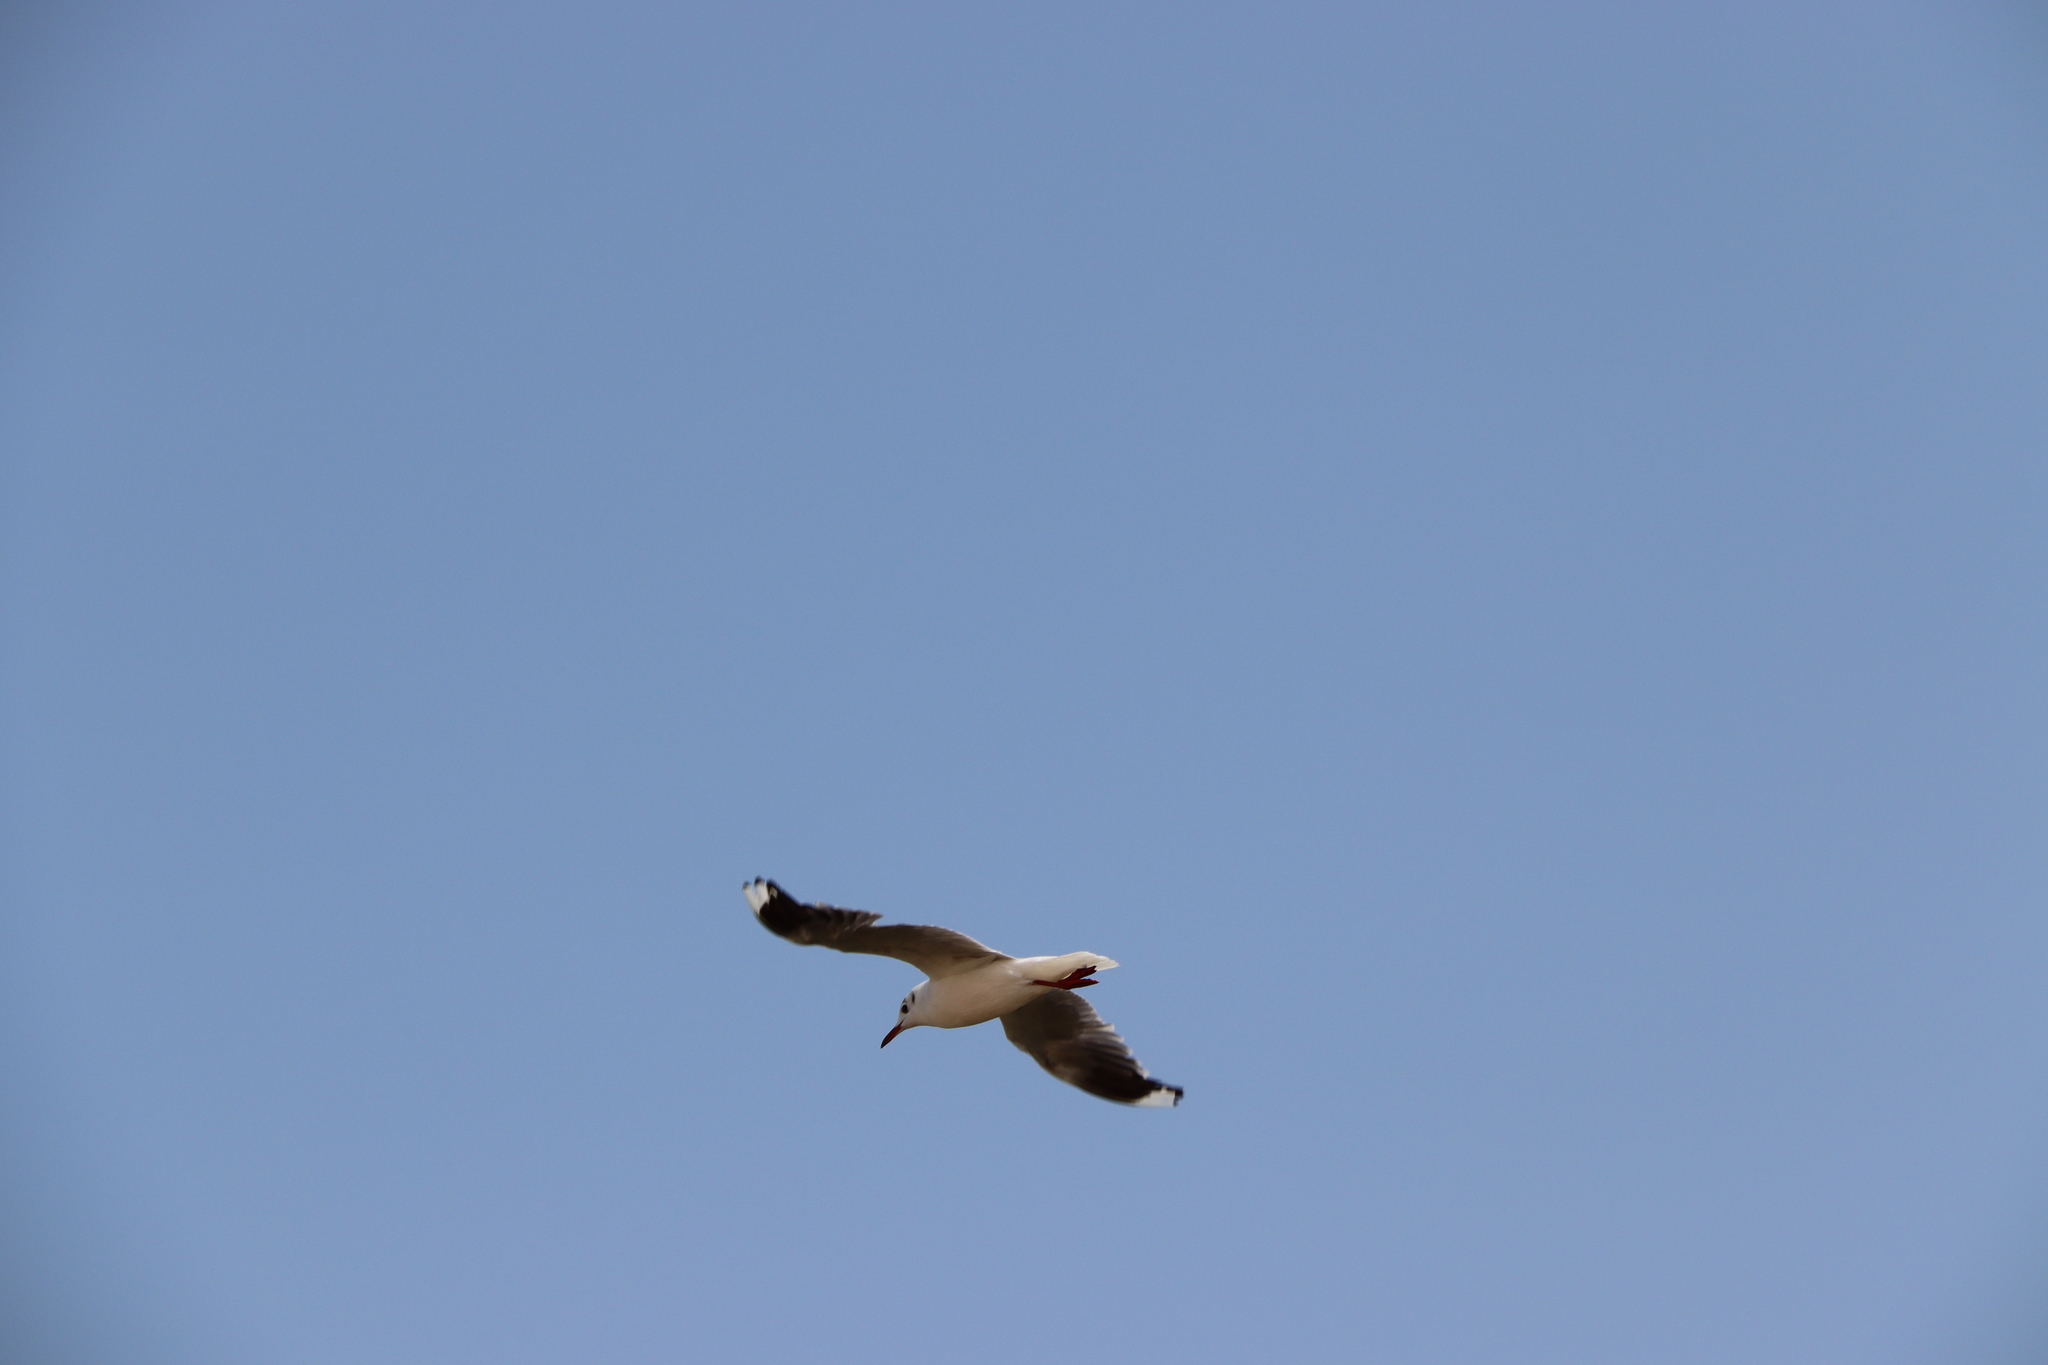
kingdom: Animalia
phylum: Chordata
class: Aves
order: Charadriiformes
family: Laridae
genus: Chroicocephalus
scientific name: Chroicocephalus maculipennis
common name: Brown-hooded gull
